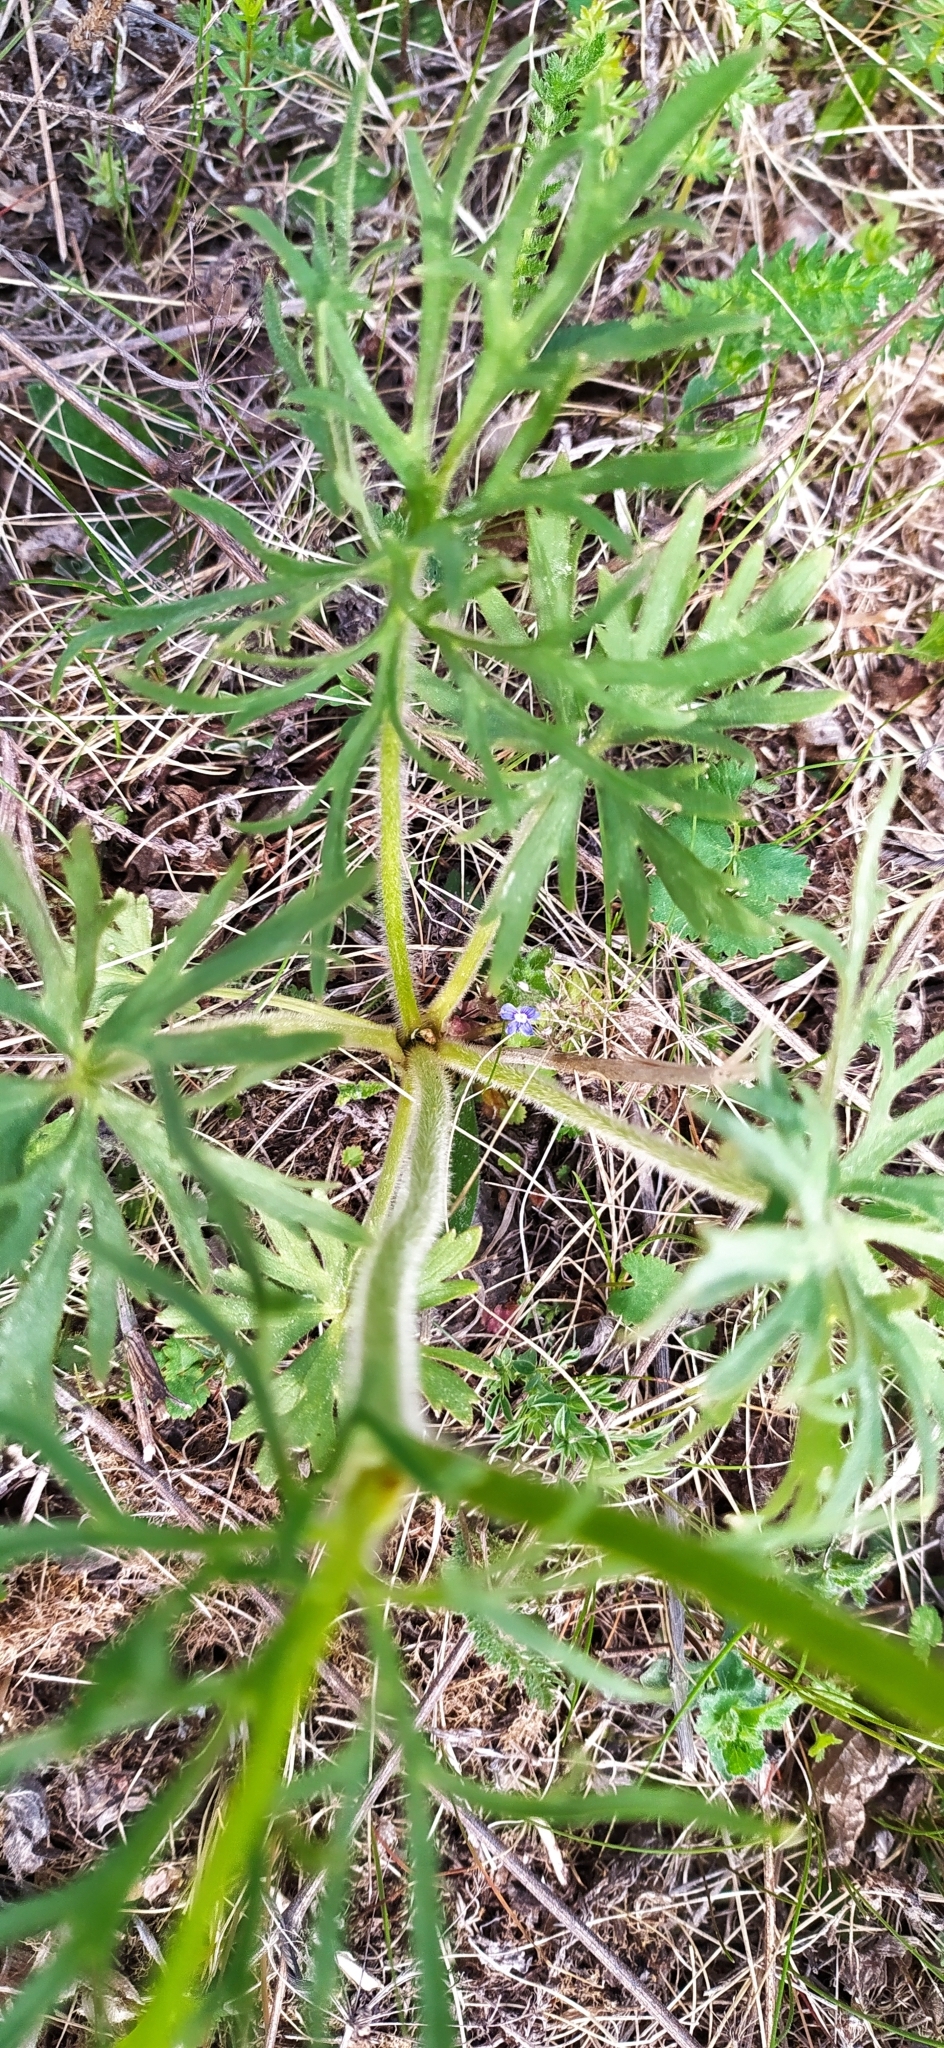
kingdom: Plantae
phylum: Tracheophyta
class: Magnoliopsida
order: Ranunculales
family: Ranunculaceae
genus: Ranunculus
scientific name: Ranunculus polyanthemos
